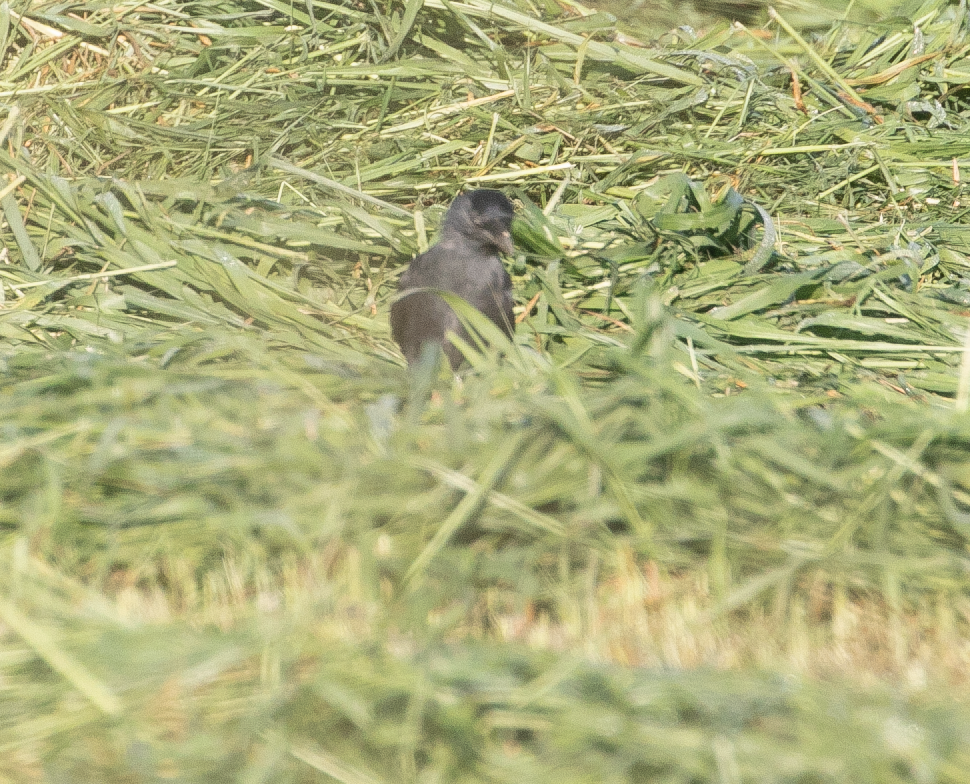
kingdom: Animalia
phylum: Chordata
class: Aves
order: Passeriformes
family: Corvidae
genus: Coloeus
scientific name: Coloeus monedula
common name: Western jackdaw
